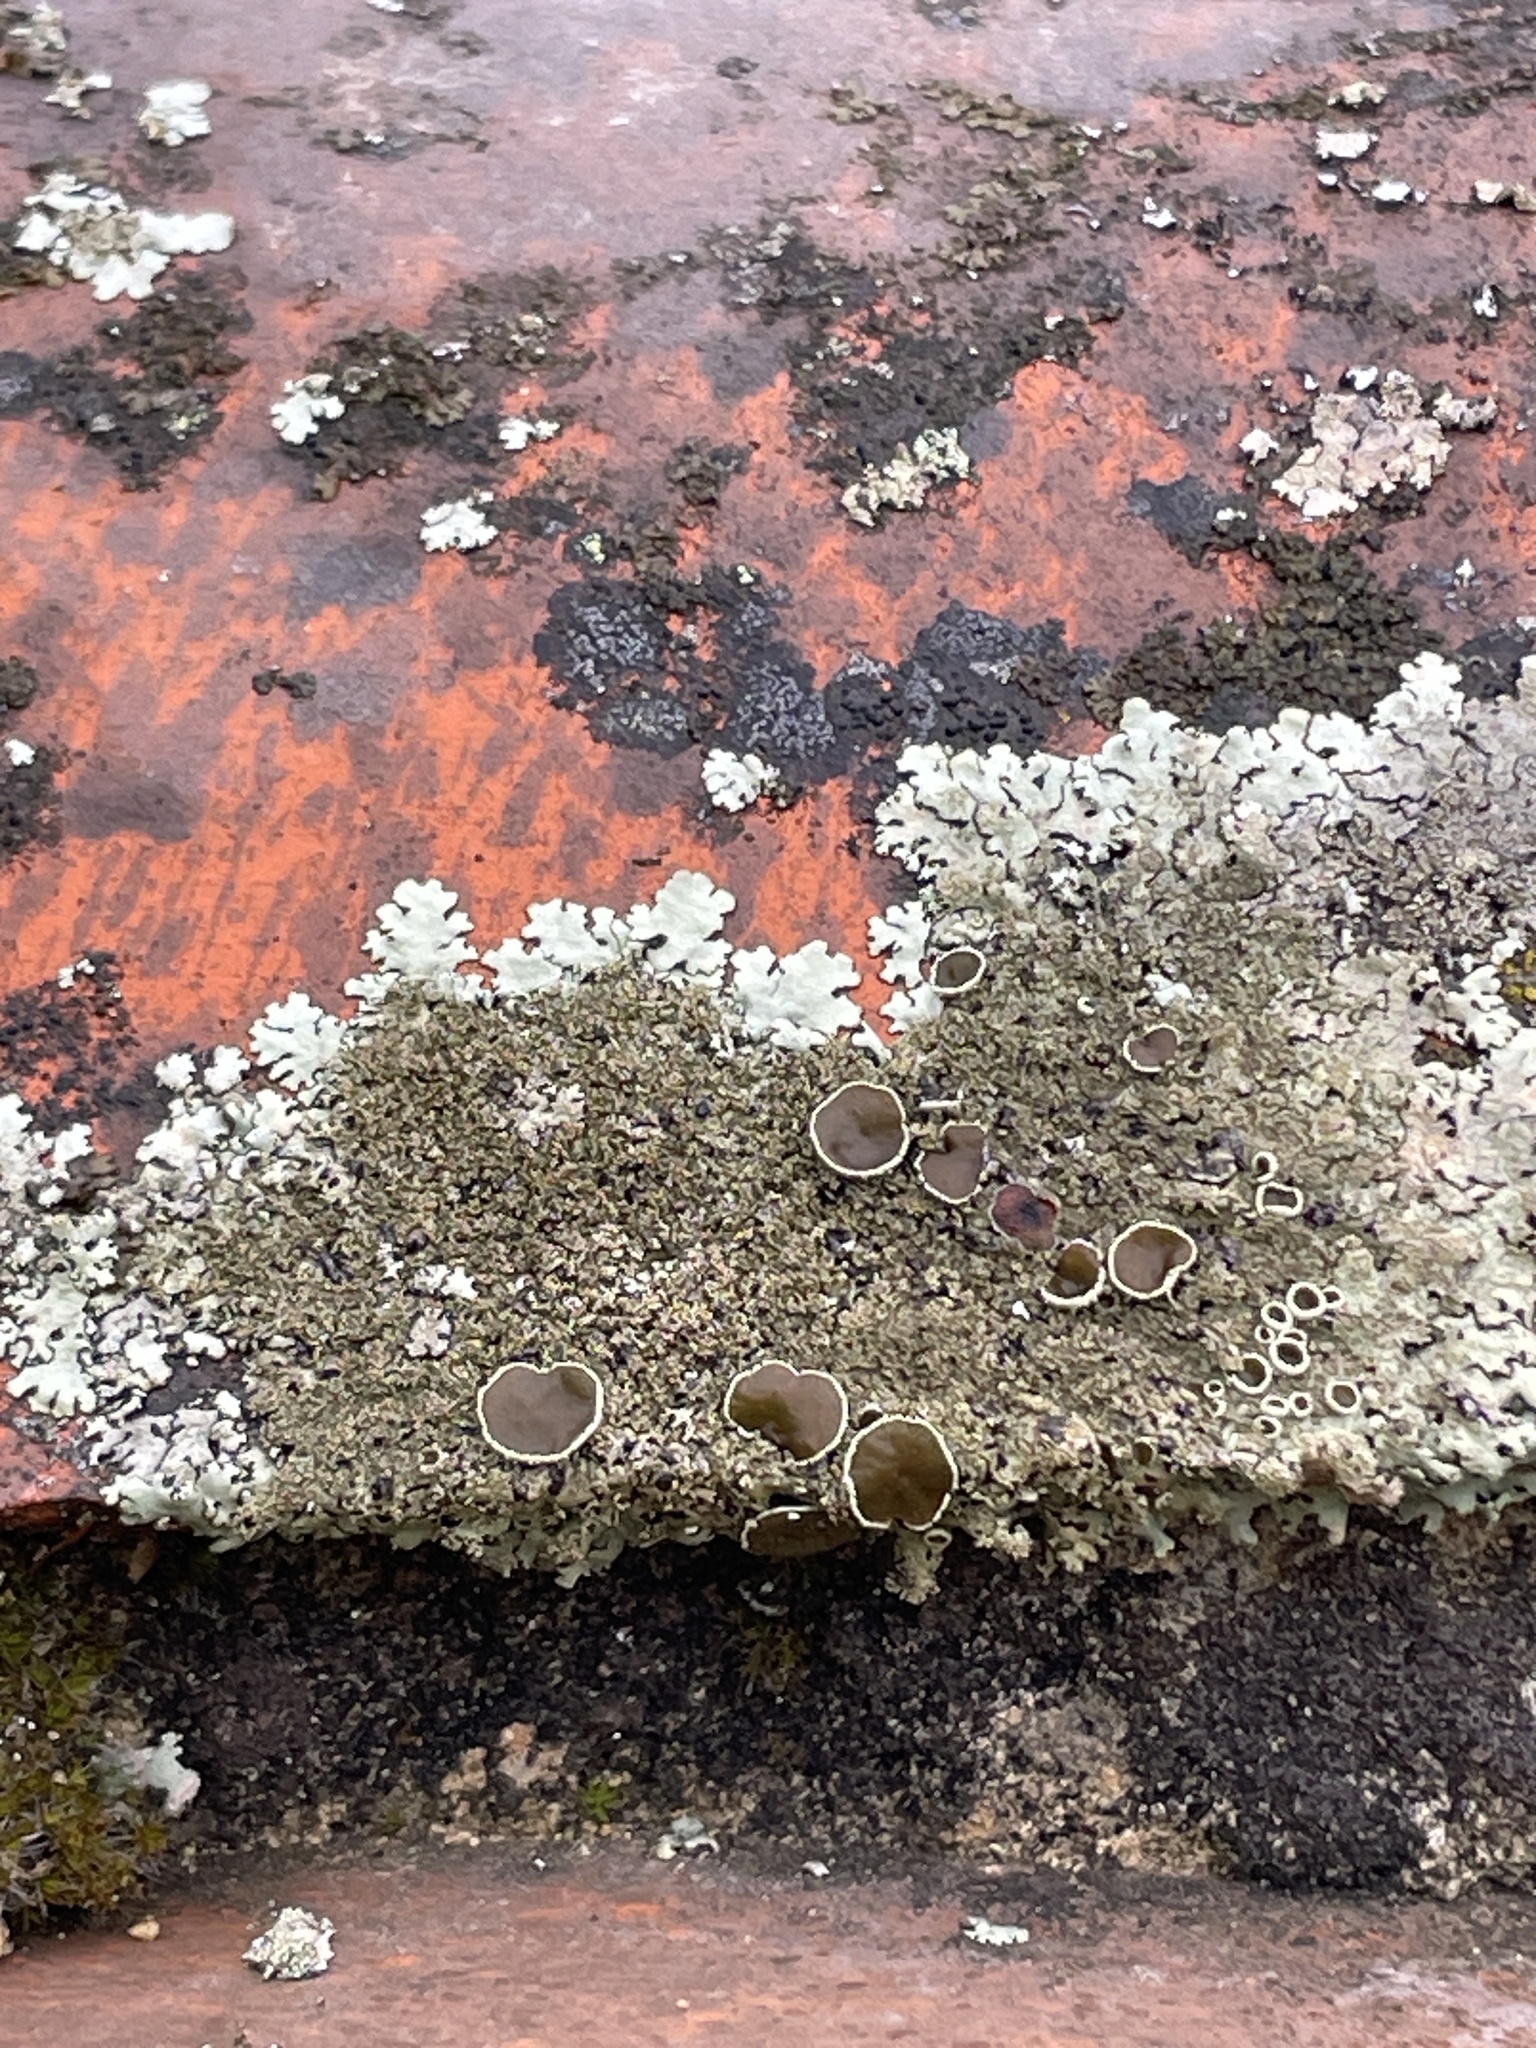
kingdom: Fungi
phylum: Ascomycota
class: Lecanoromycetes
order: Lecanorales
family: Parmeliaceae
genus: Xanthoparmelia
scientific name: Xanthoparmelia conspersa
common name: Peppered rock shield
